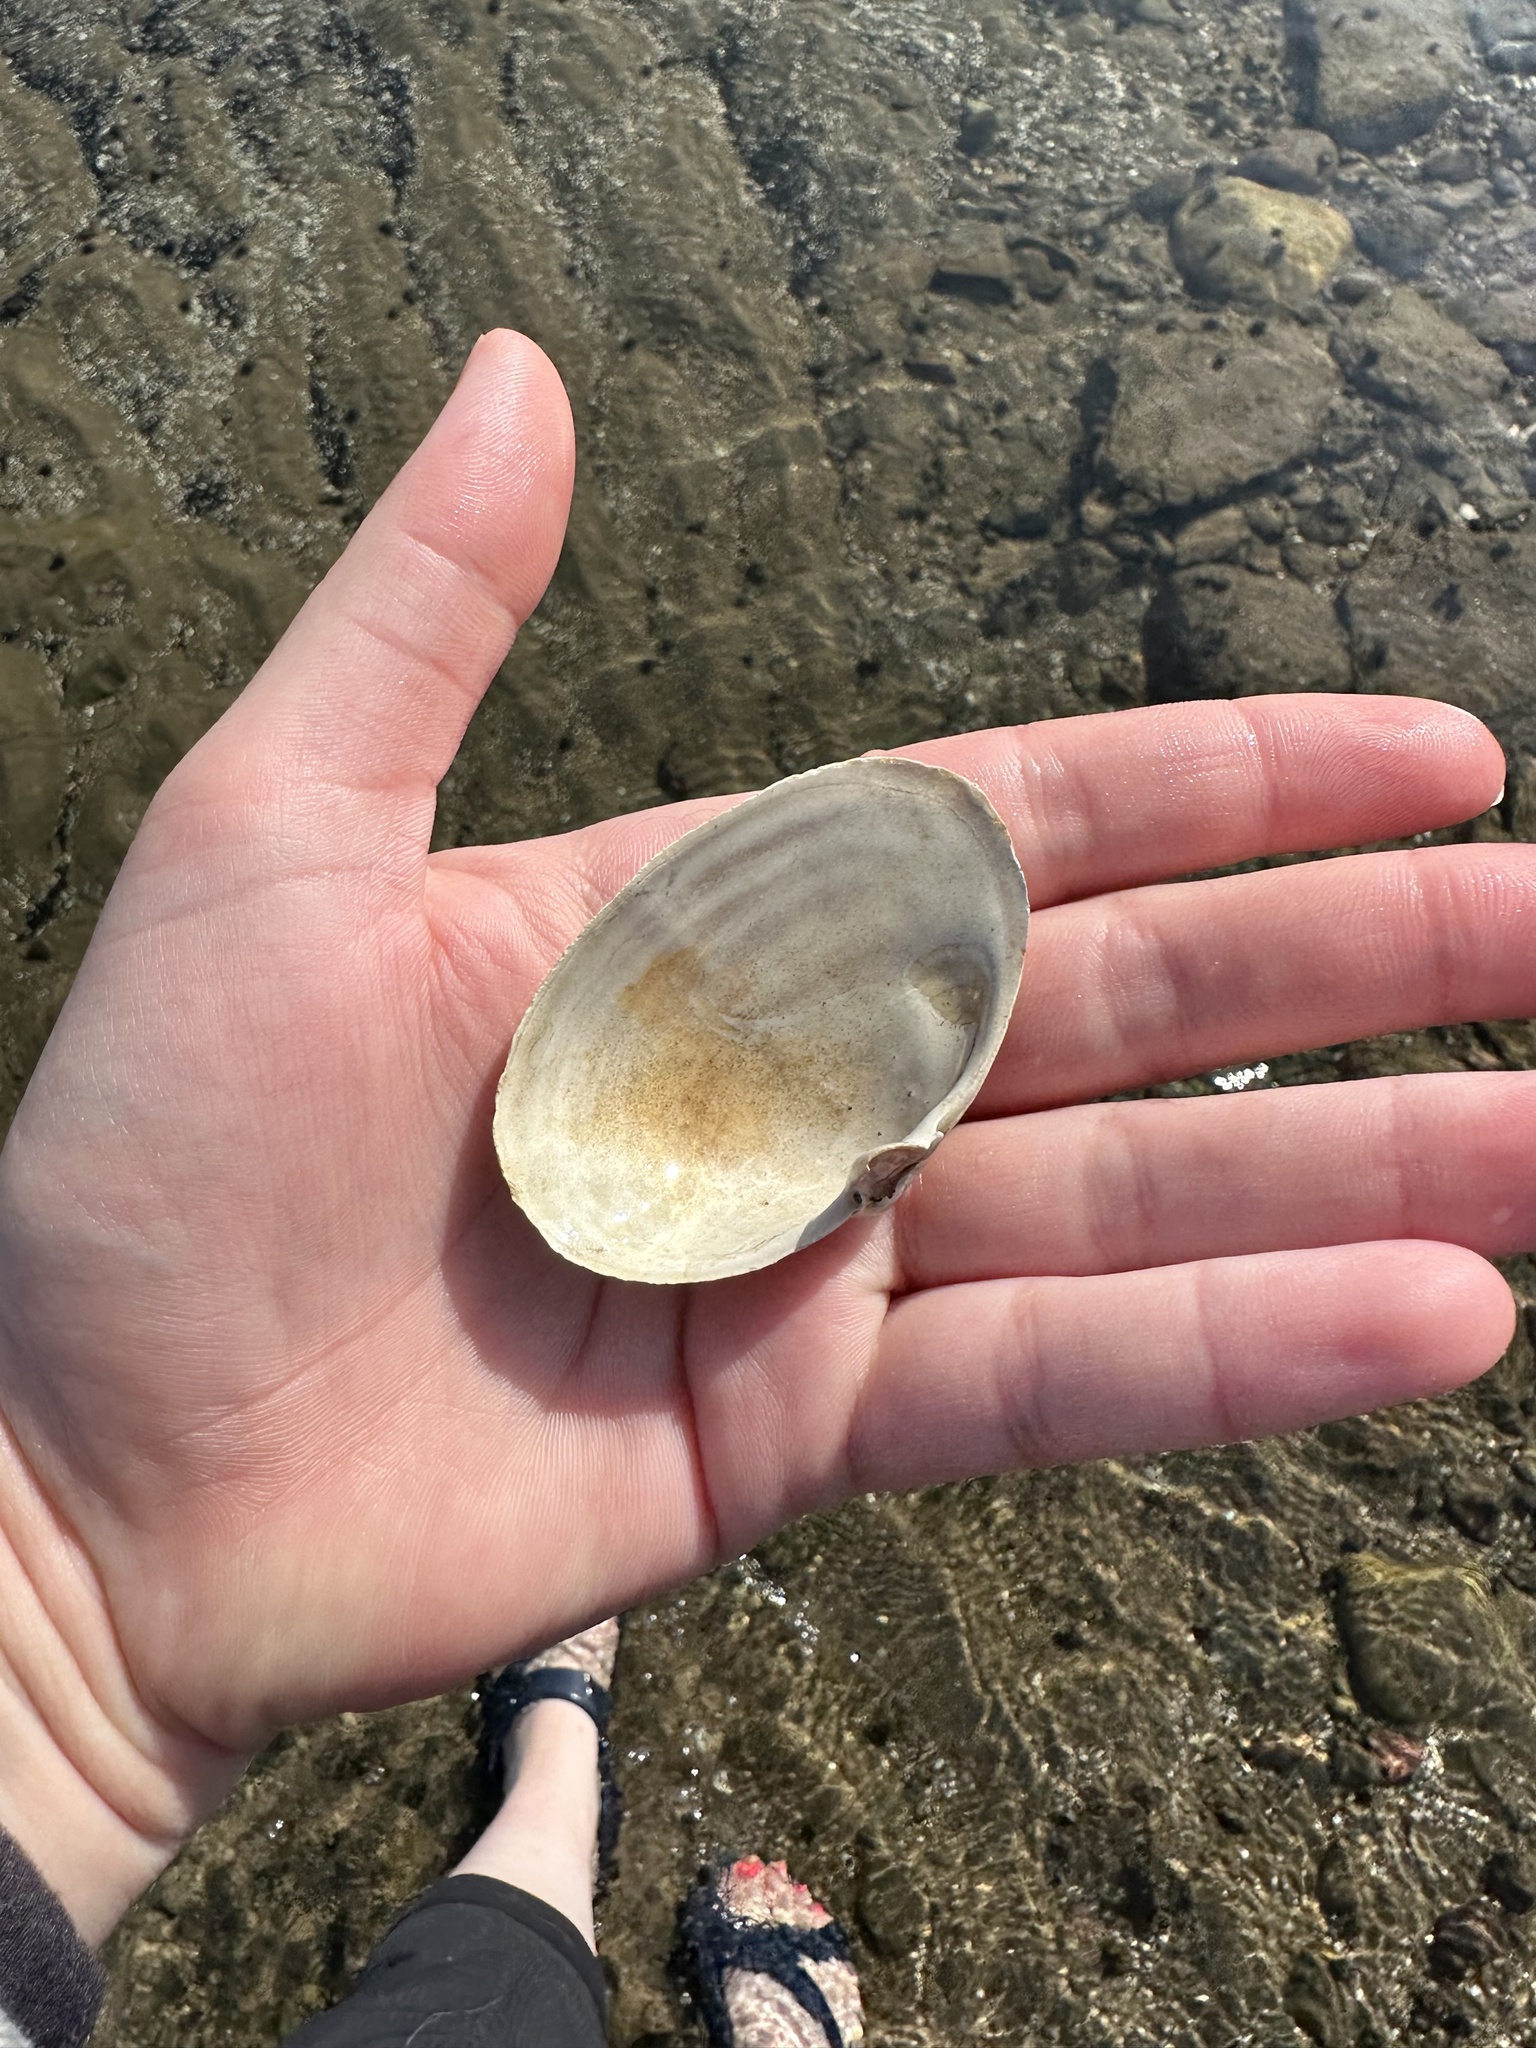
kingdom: Animalia
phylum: Mollusca
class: Bivalvia
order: Myida
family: Myidae
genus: Mya
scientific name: Mya arenaria
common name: Soft-shelled clam
